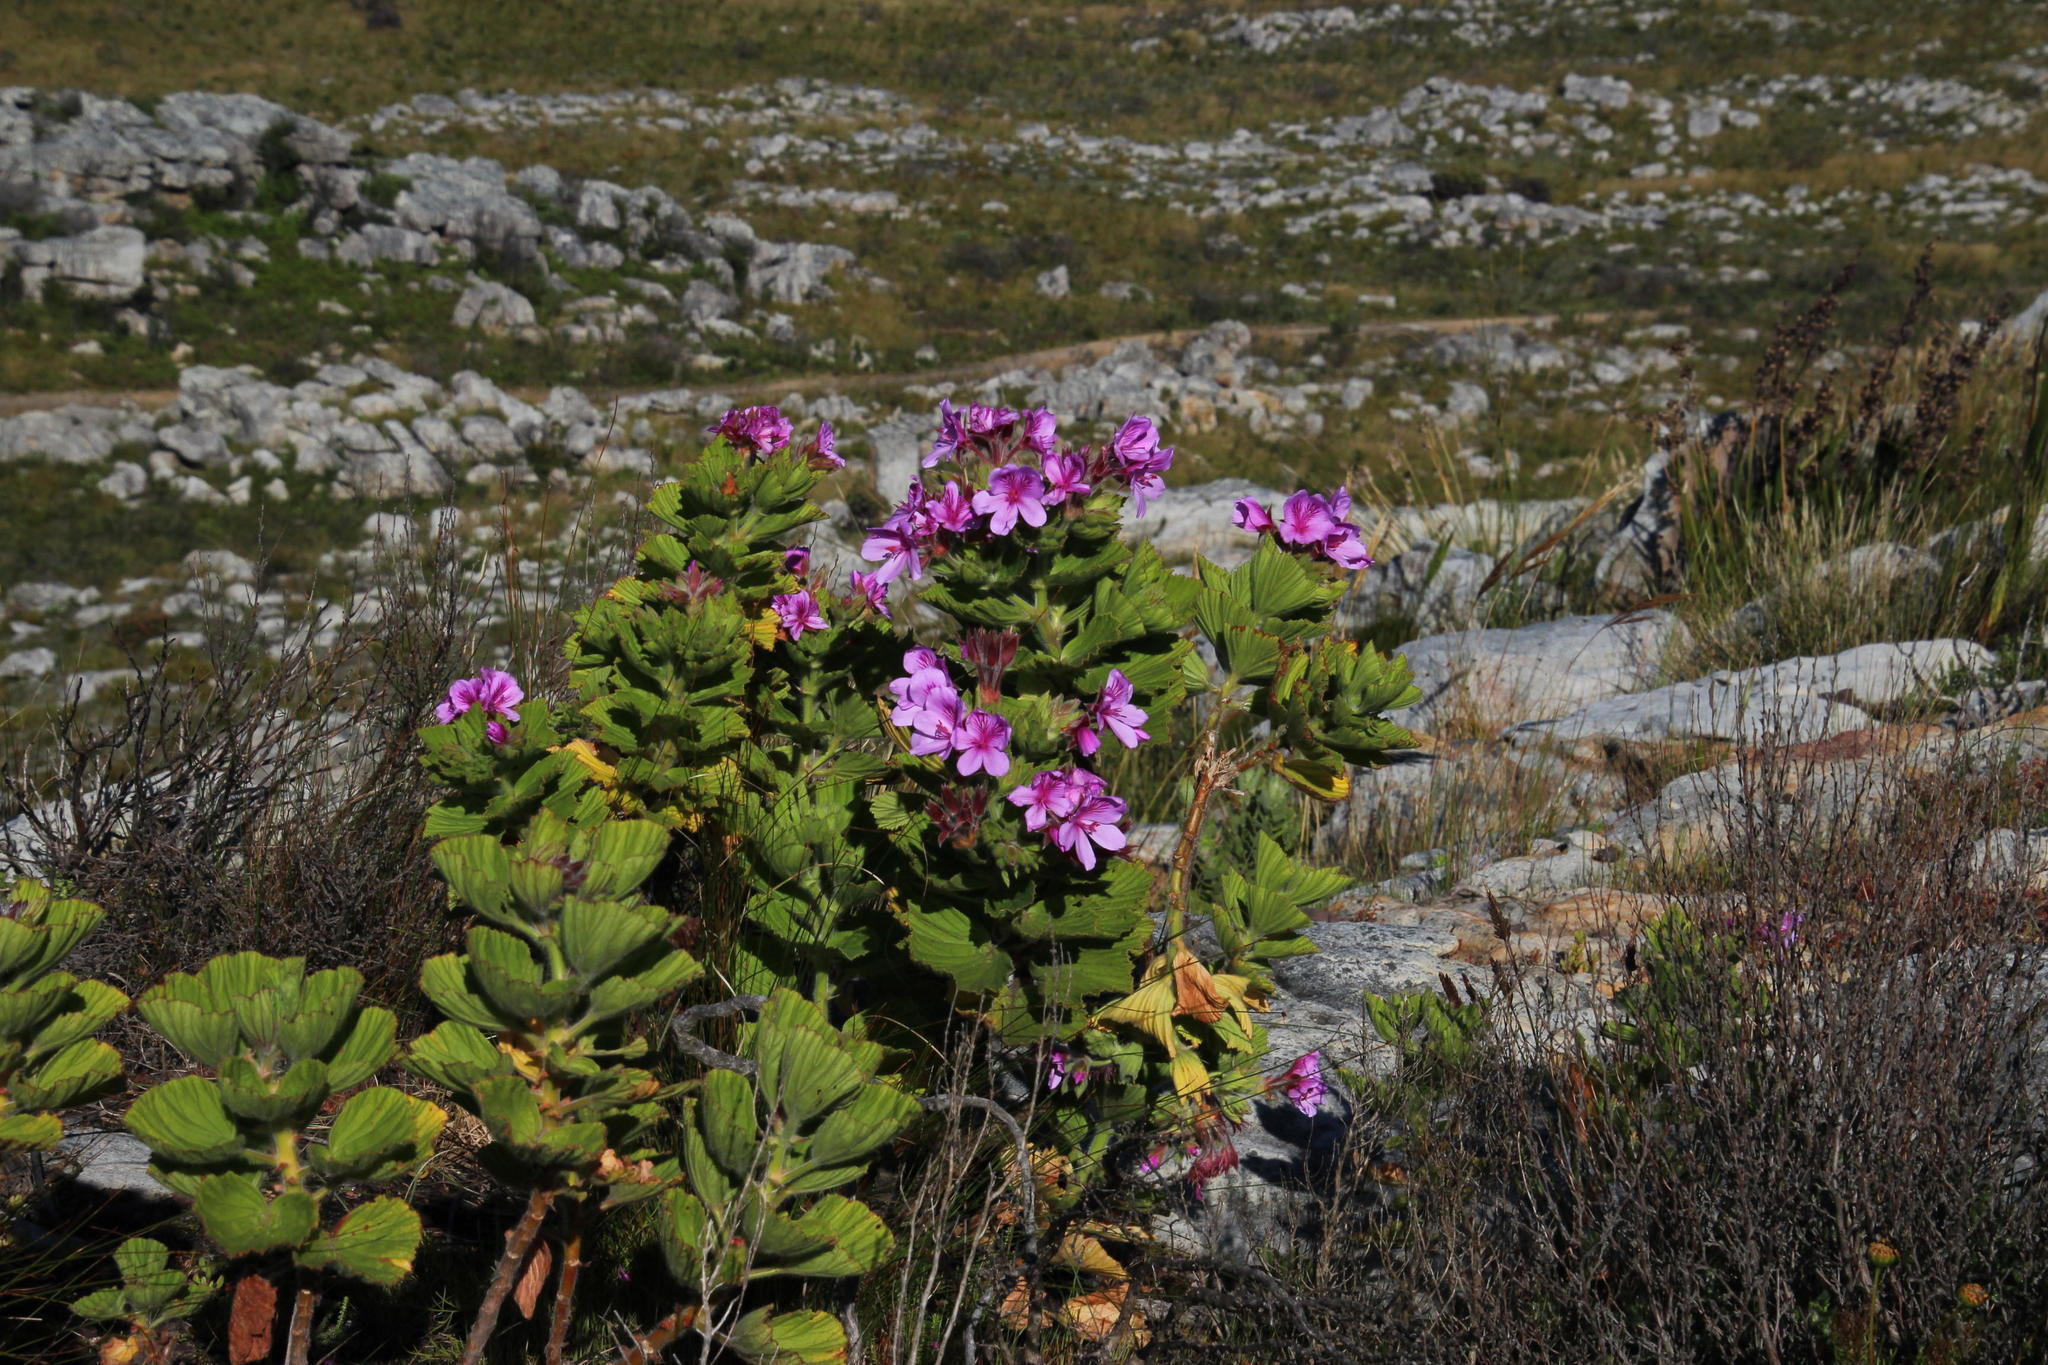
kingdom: Plantae
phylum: Tracheophyta
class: Magnoliopsida
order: Geraniales
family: Geraniaceae
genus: Pelargonium
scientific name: Pelargonium cucullatum
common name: Tree pelargonium
